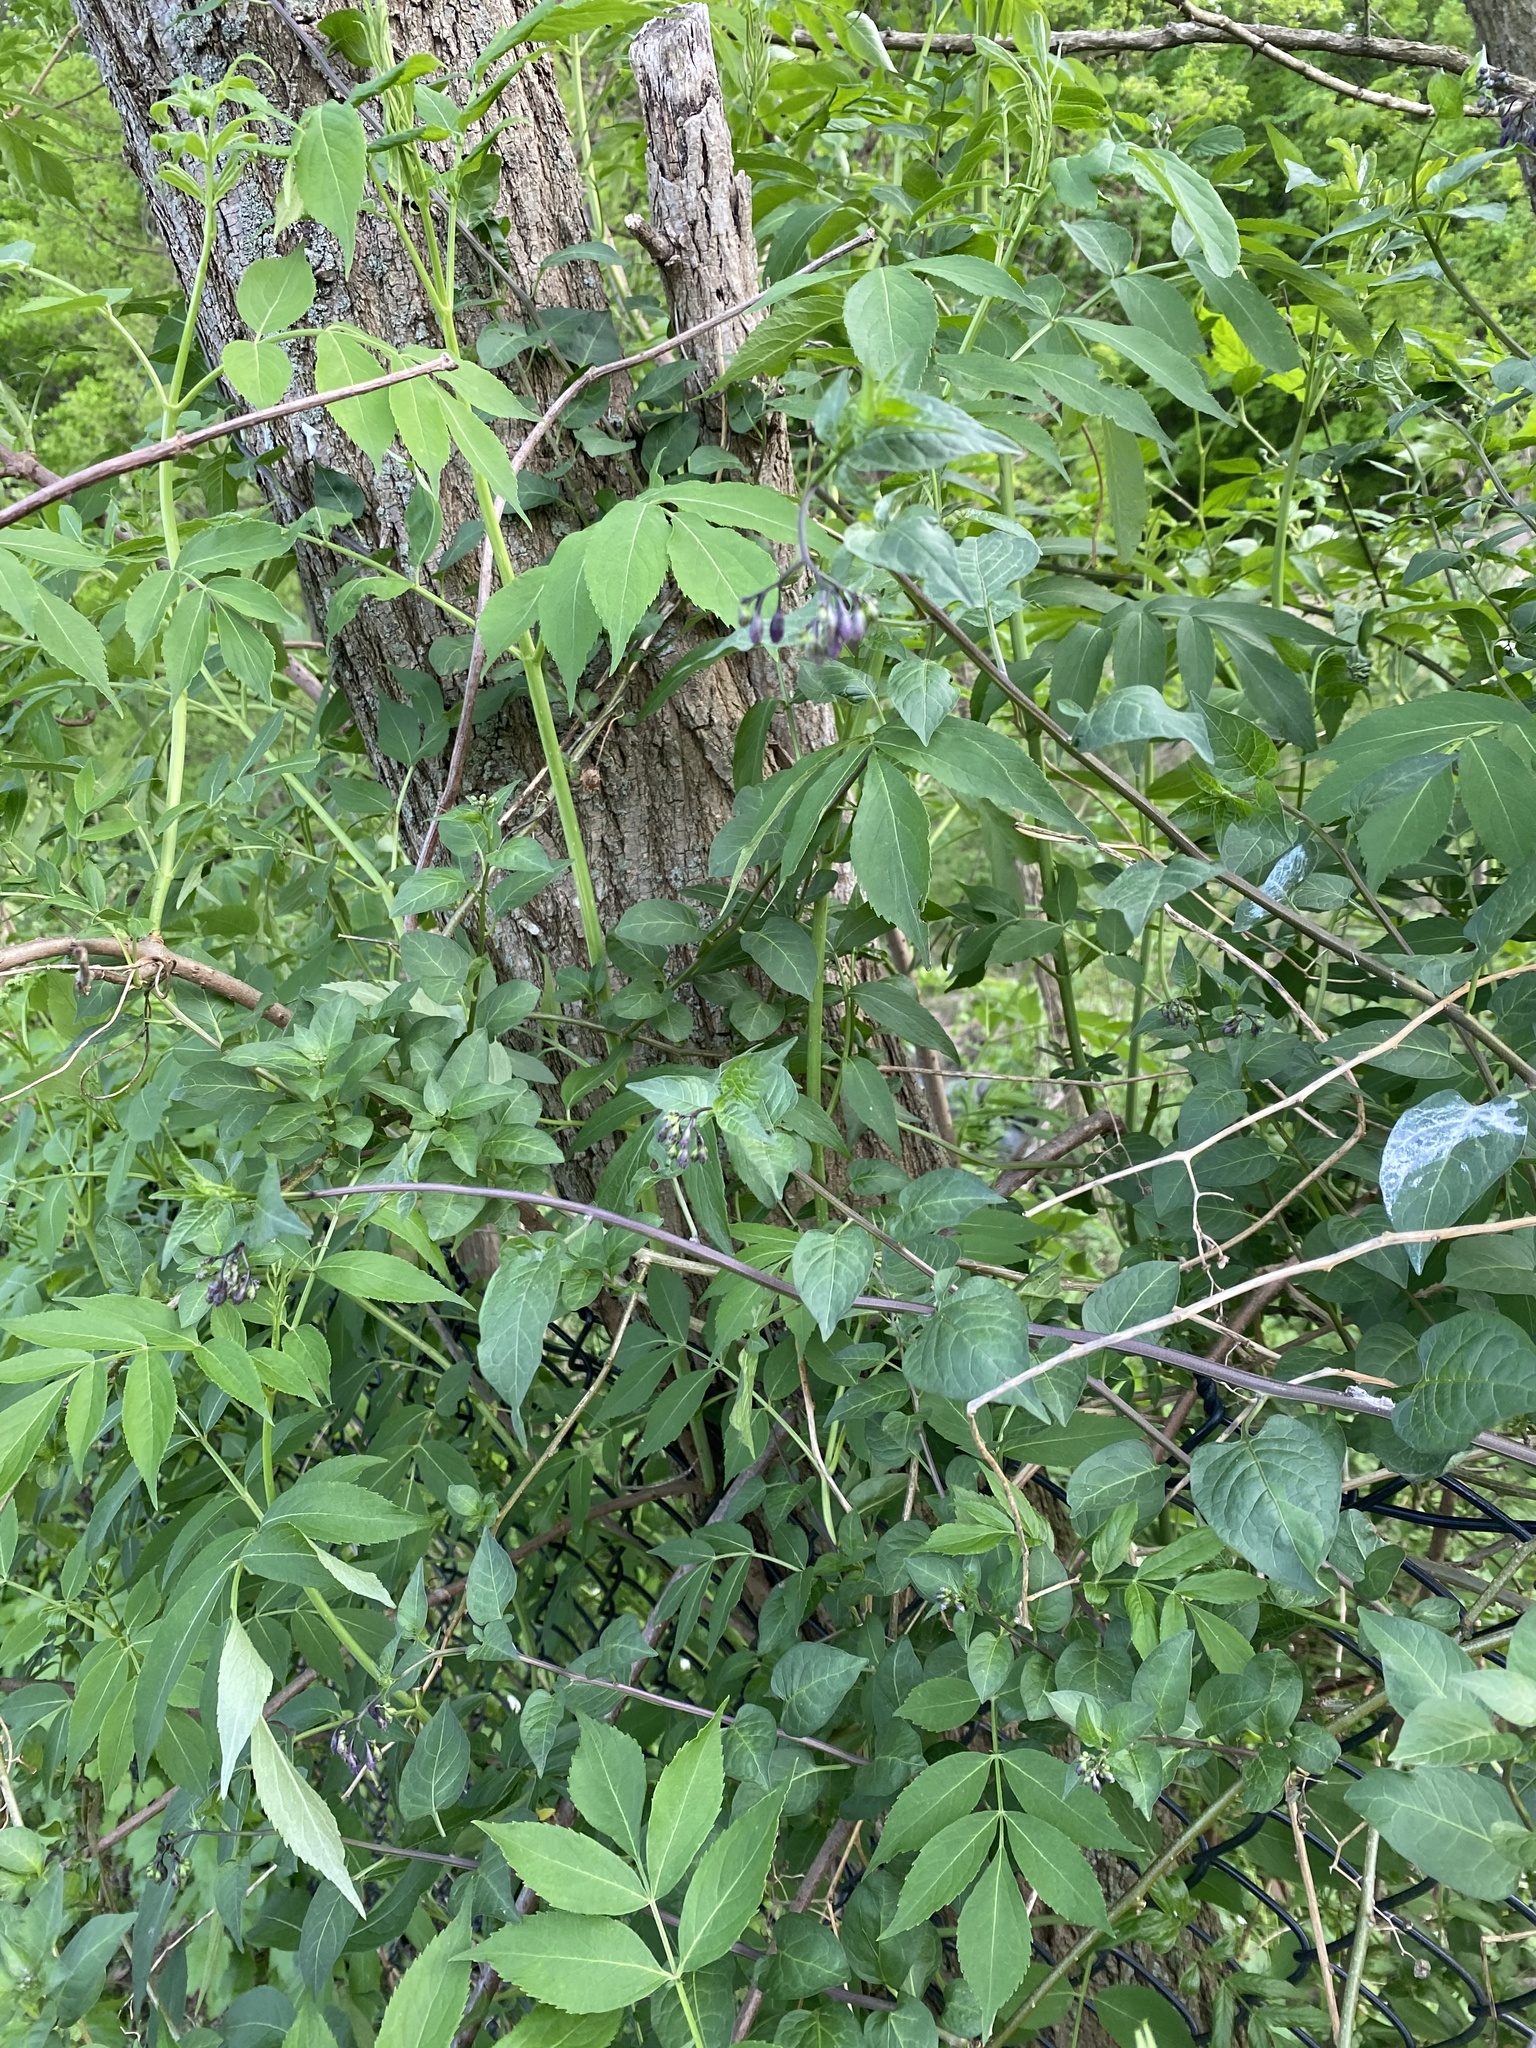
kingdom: Plantae
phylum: Tracheophyta
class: Magnoliopsida
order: Solanales
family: Solanaceae
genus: Solanum
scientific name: Solanum dulcamara
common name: Climbing nightshade
